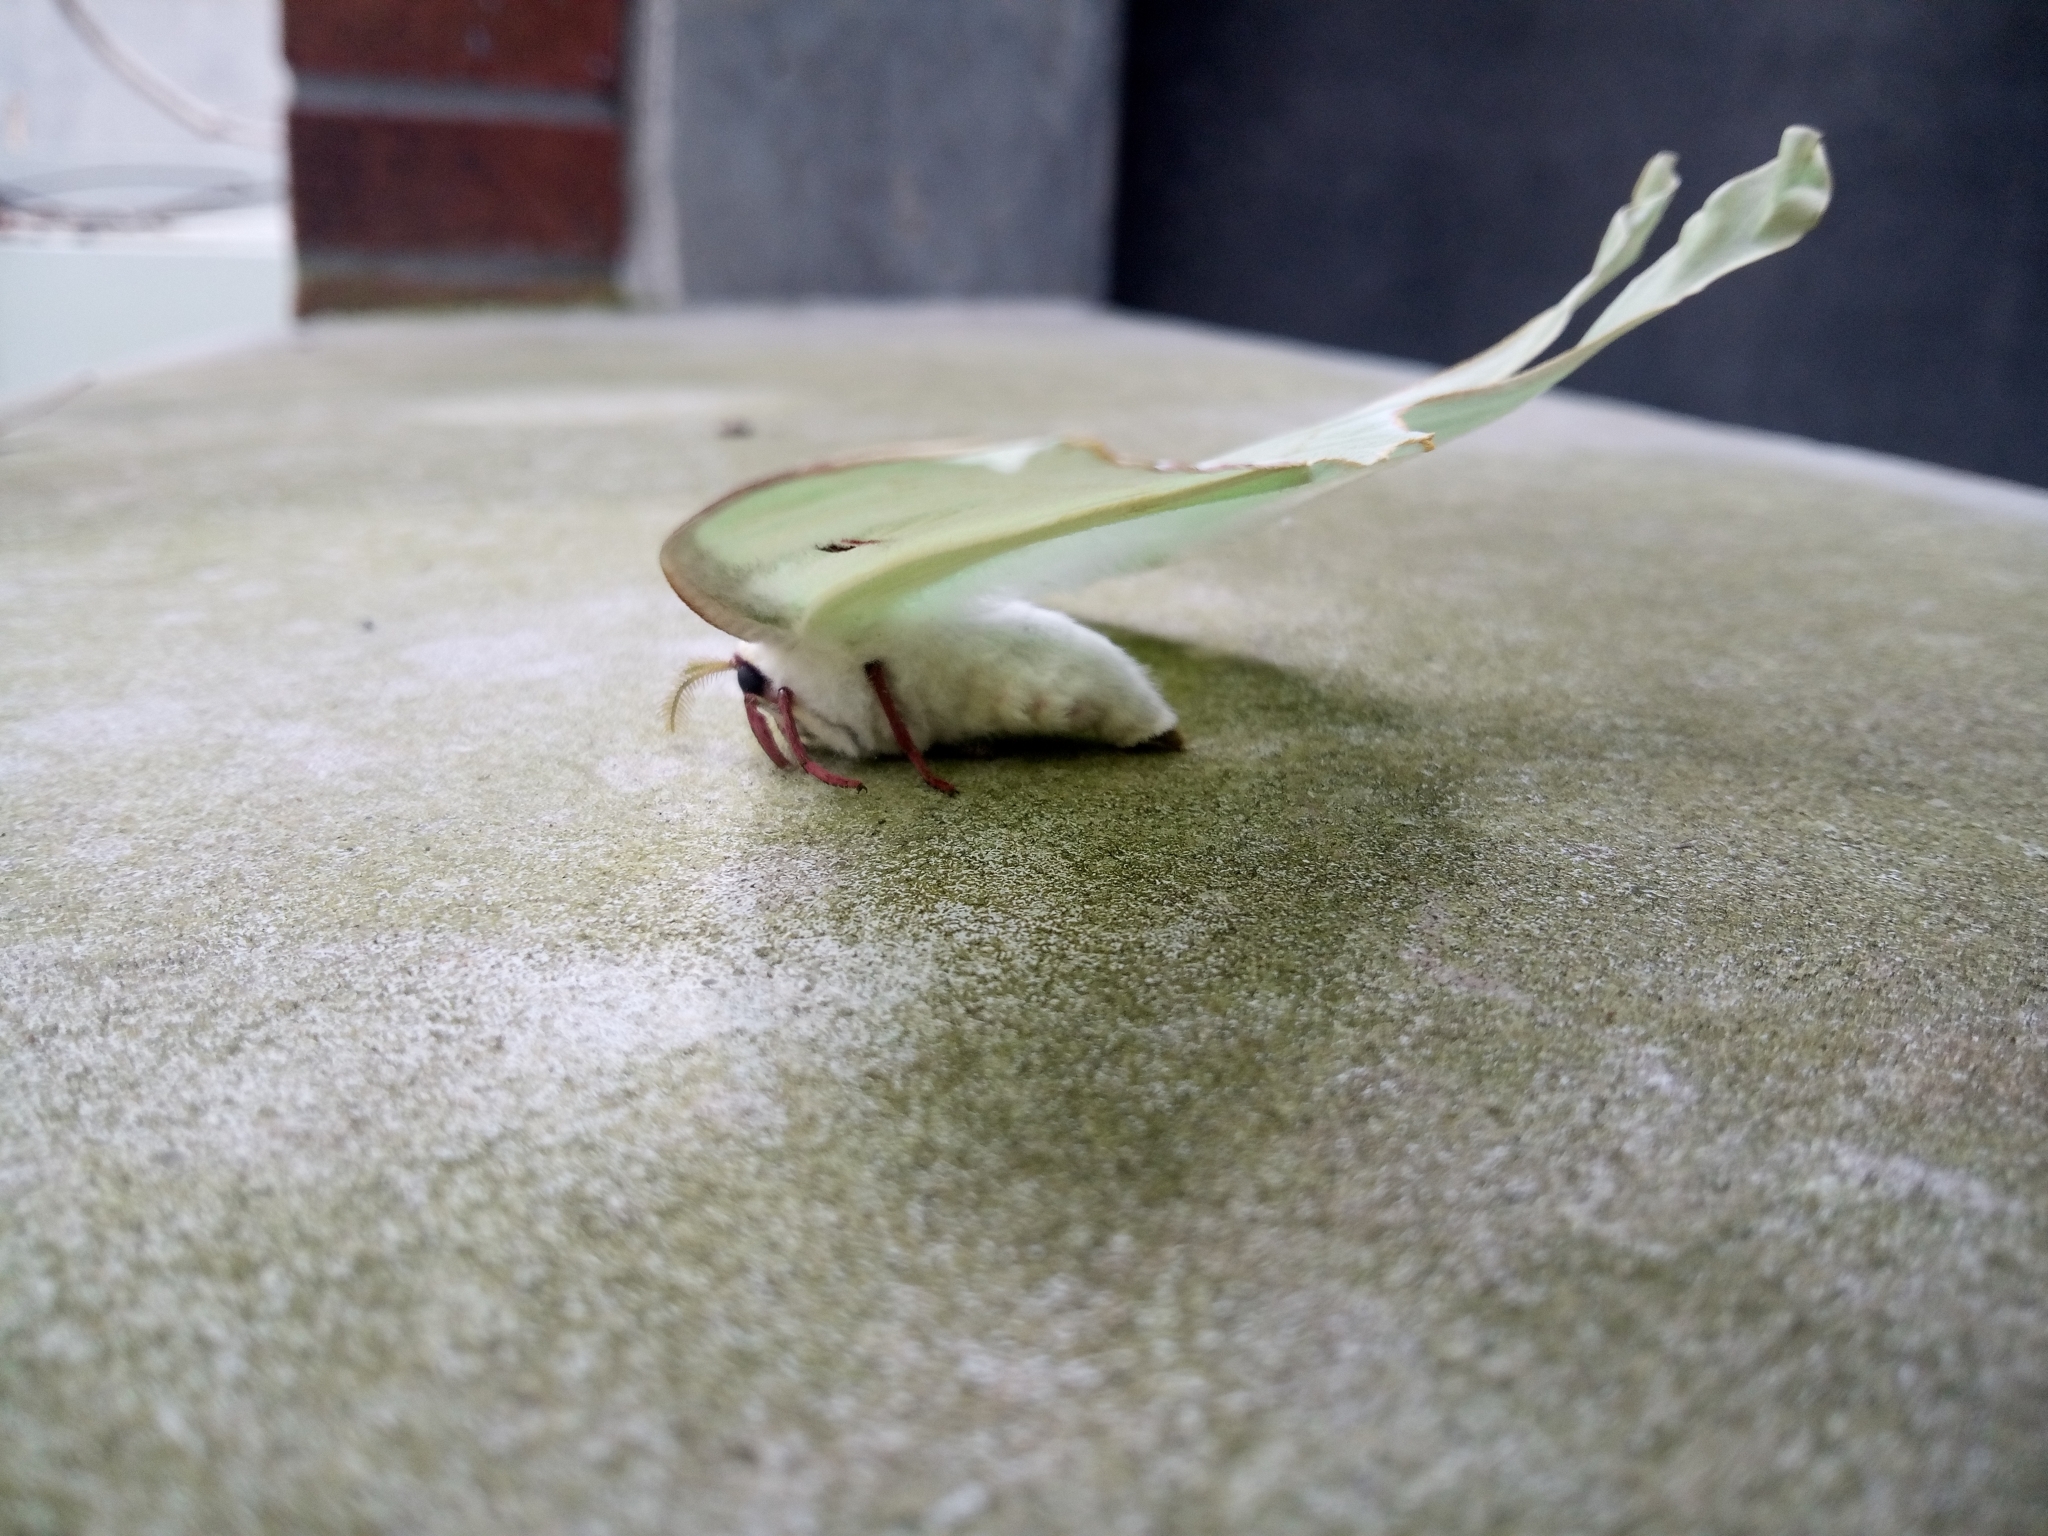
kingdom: Animalia
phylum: Arthropoda
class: Insecta
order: Lepidoptera
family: Saturniidae
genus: Actias
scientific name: Actias luna
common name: Luna moth
